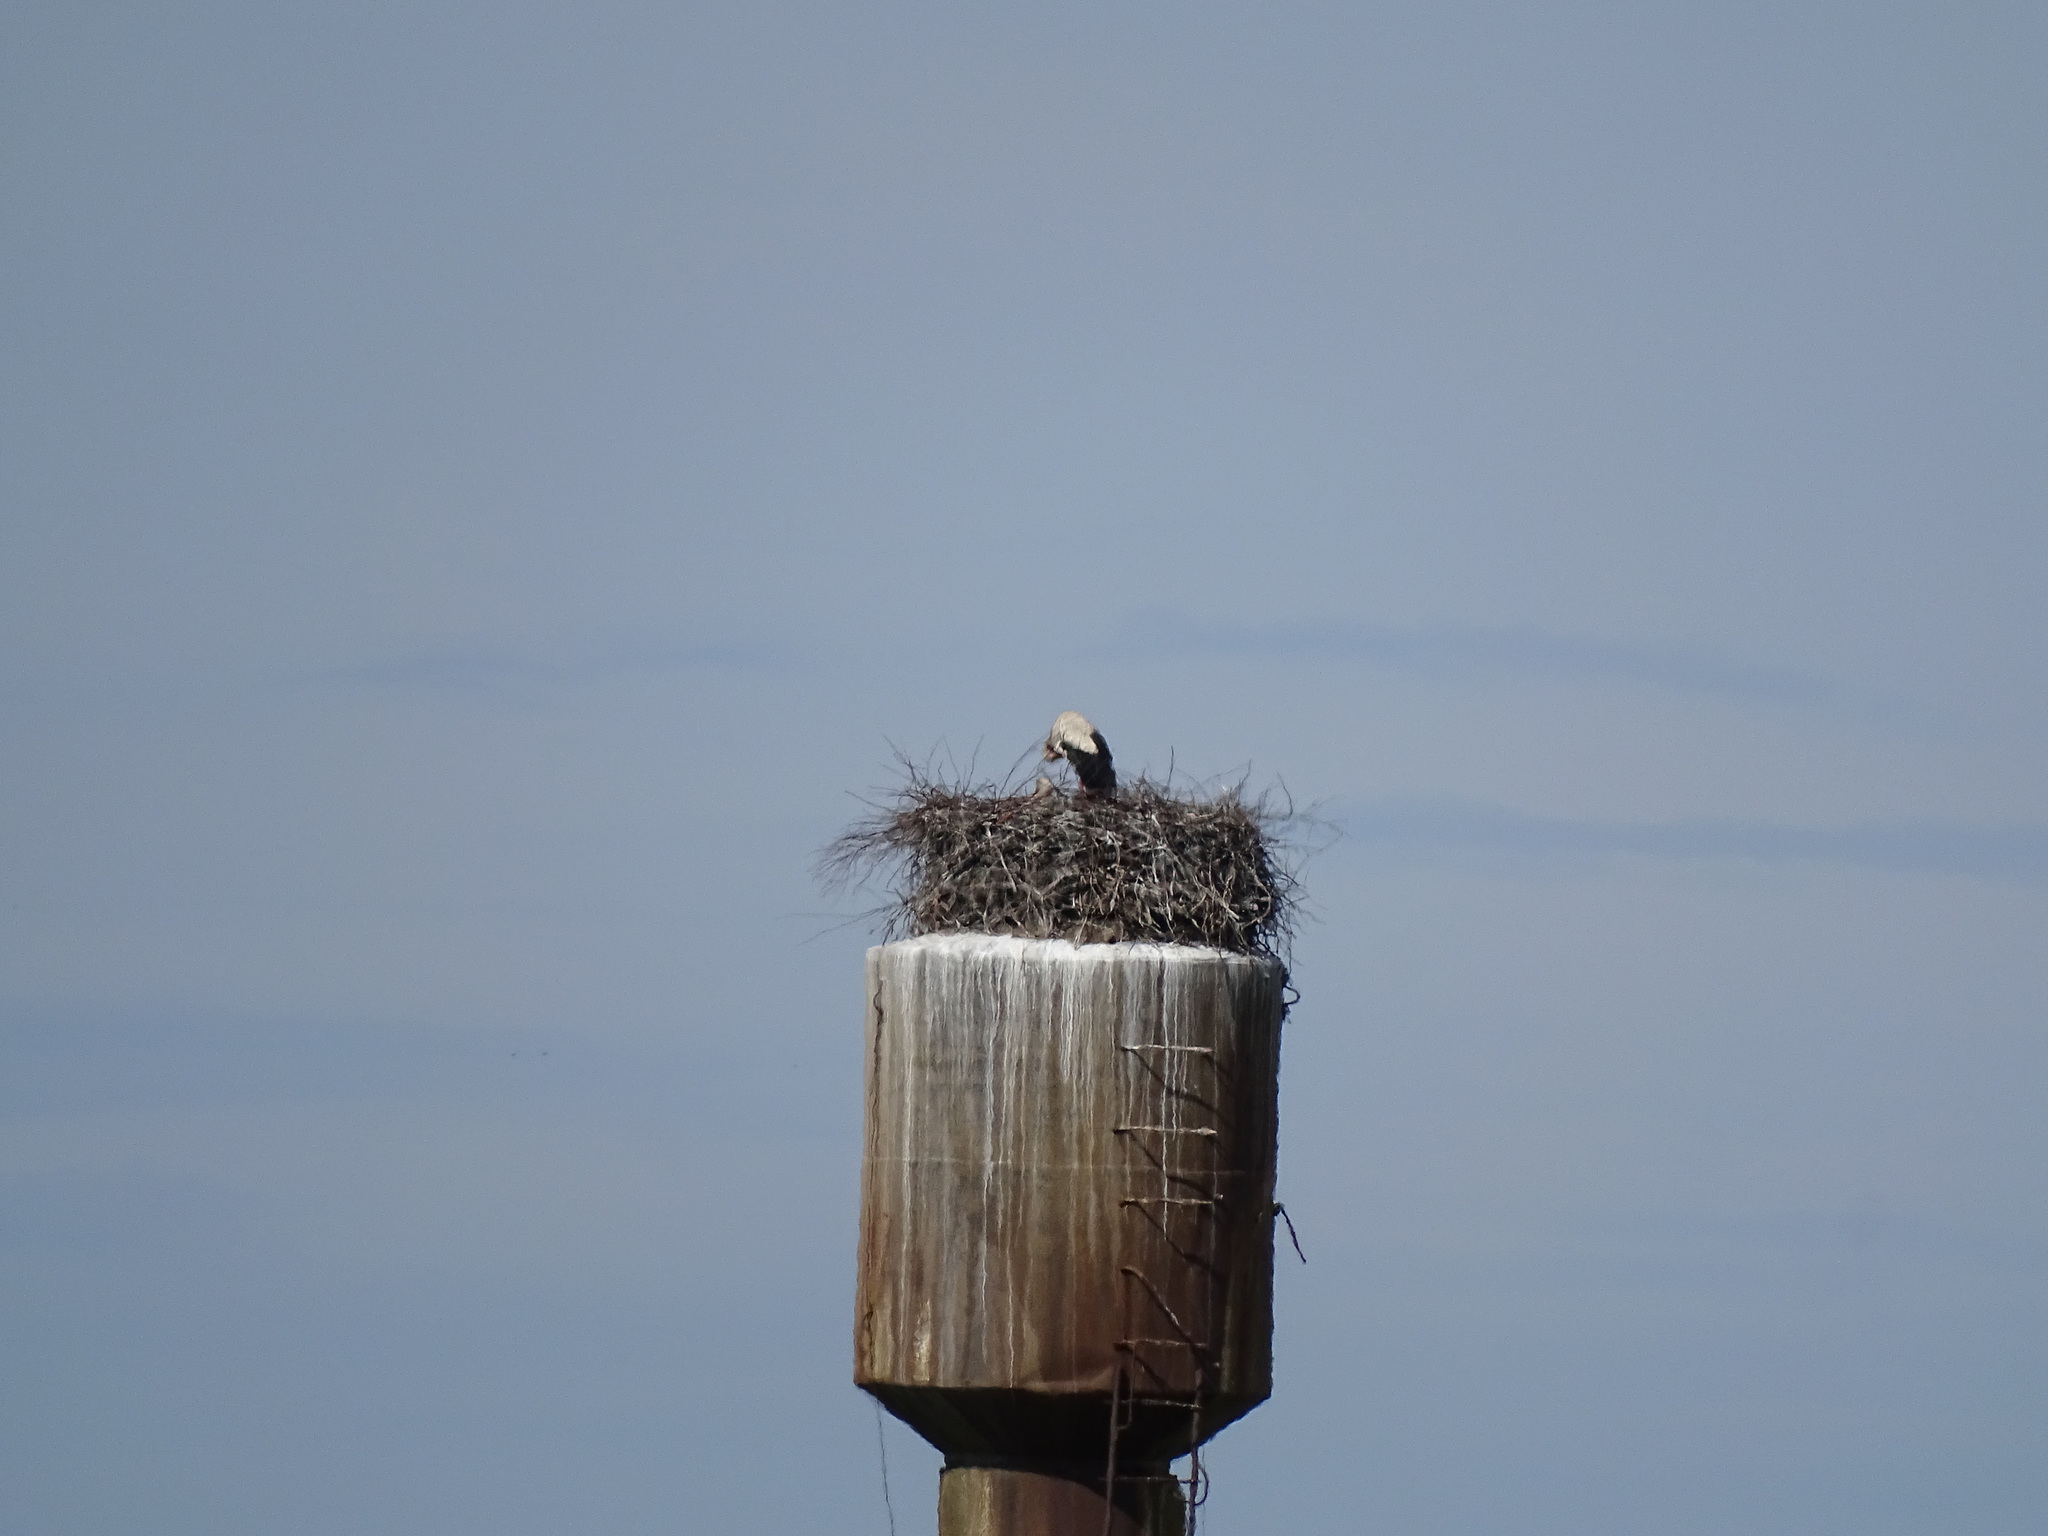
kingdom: Animalia
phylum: Chordata
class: Aves
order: Ciconiiformes
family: Ciconiidae
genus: Ciconia
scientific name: Ciconia ciconia
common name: White stork
